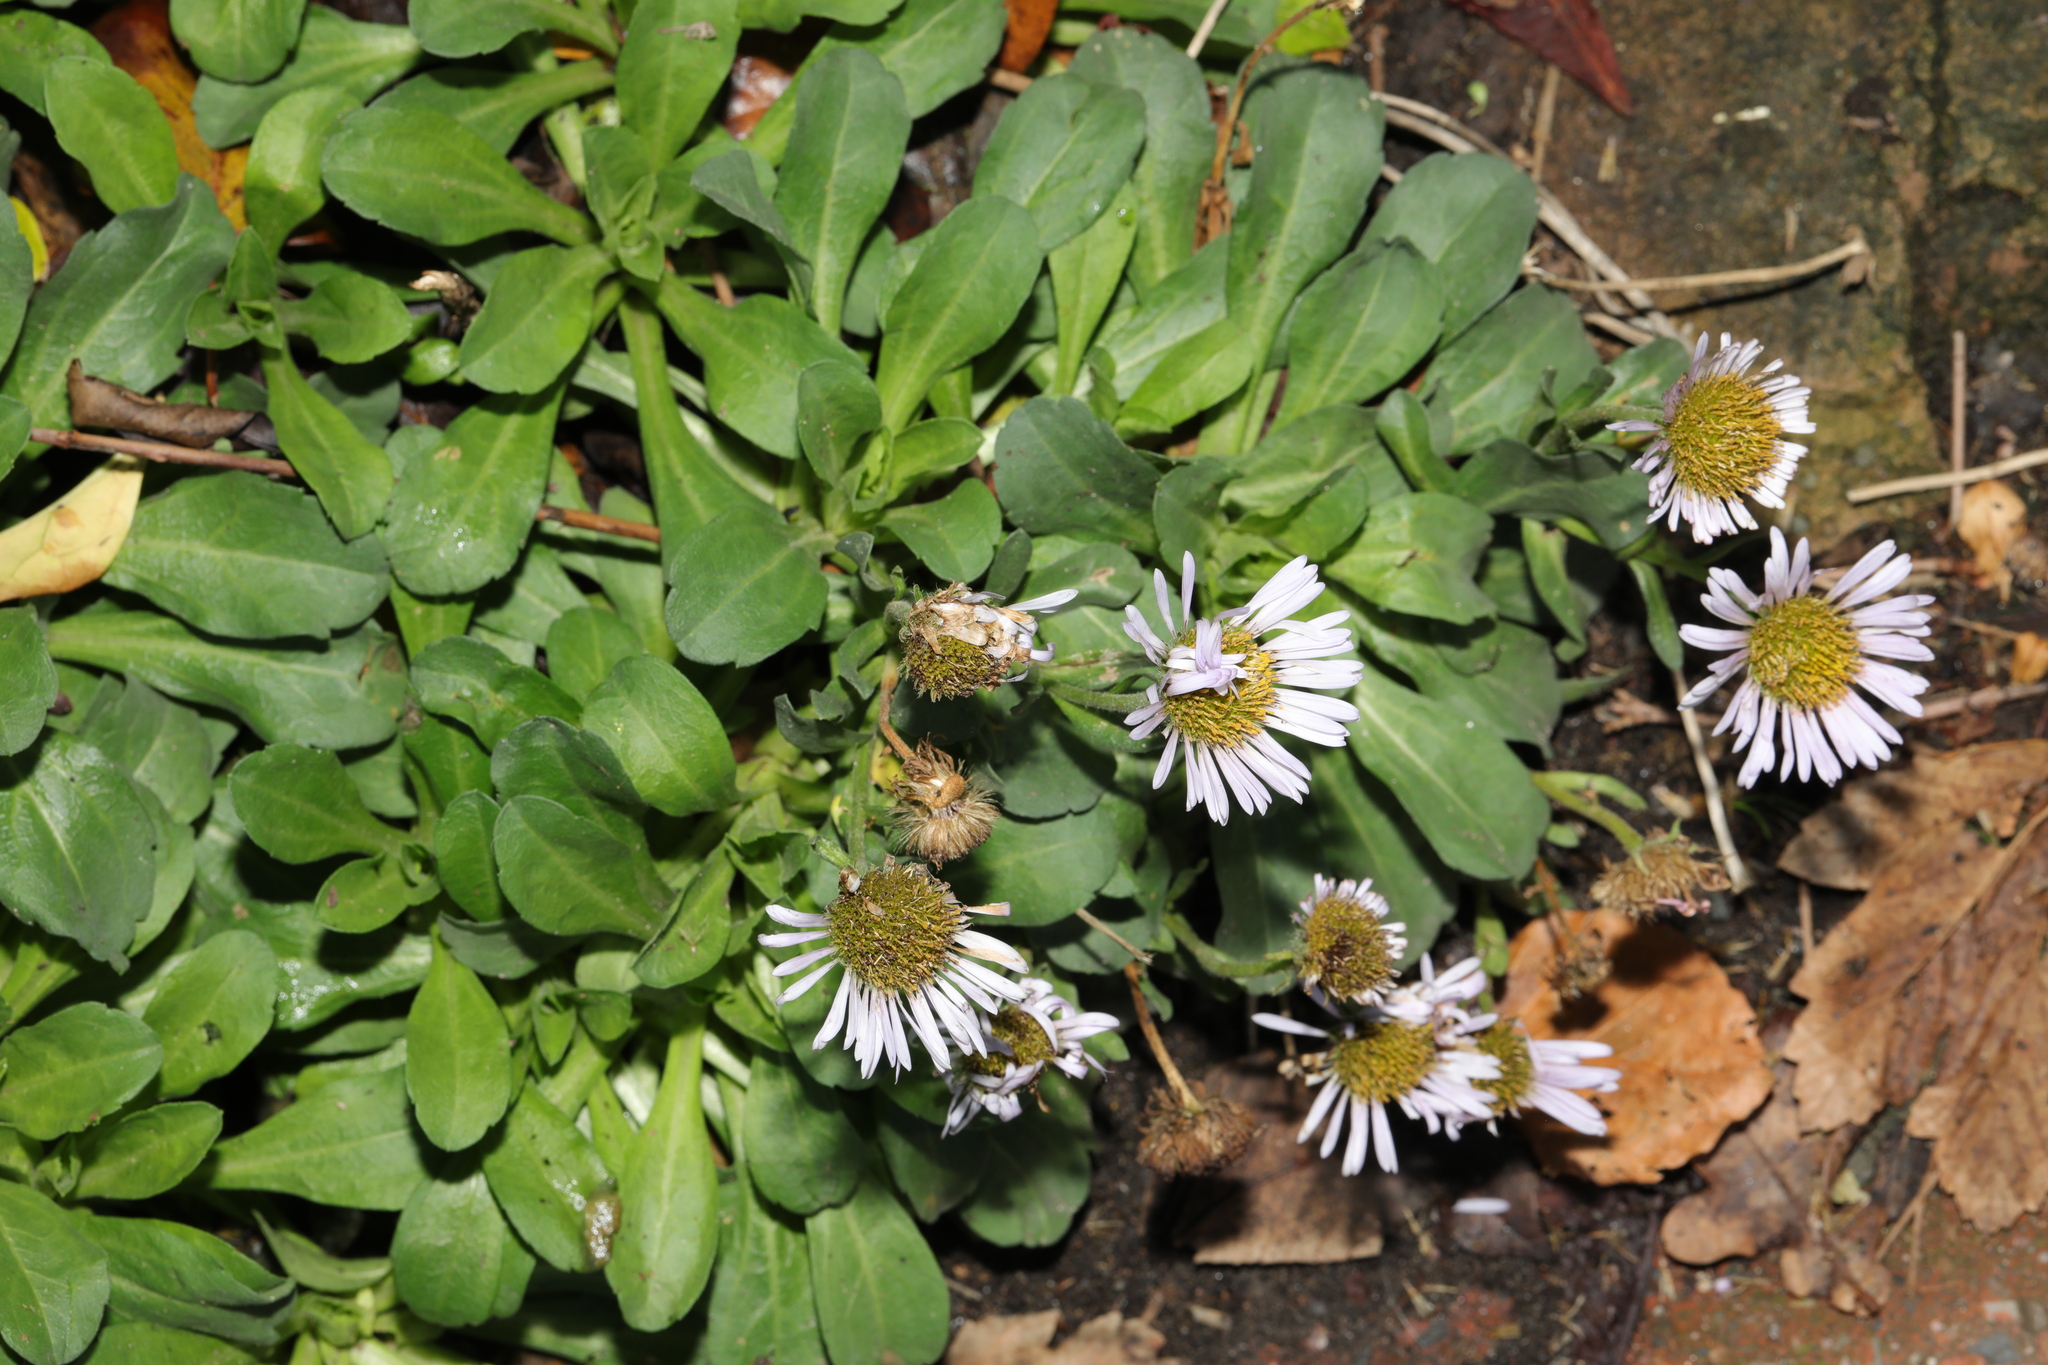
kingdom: Plantae
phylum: Tracheophyta
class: Magnoliopsida
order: Asterales
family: Asteraceae
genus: Erigeron
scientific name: Erigeron glaucus
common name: Seaside daisy
